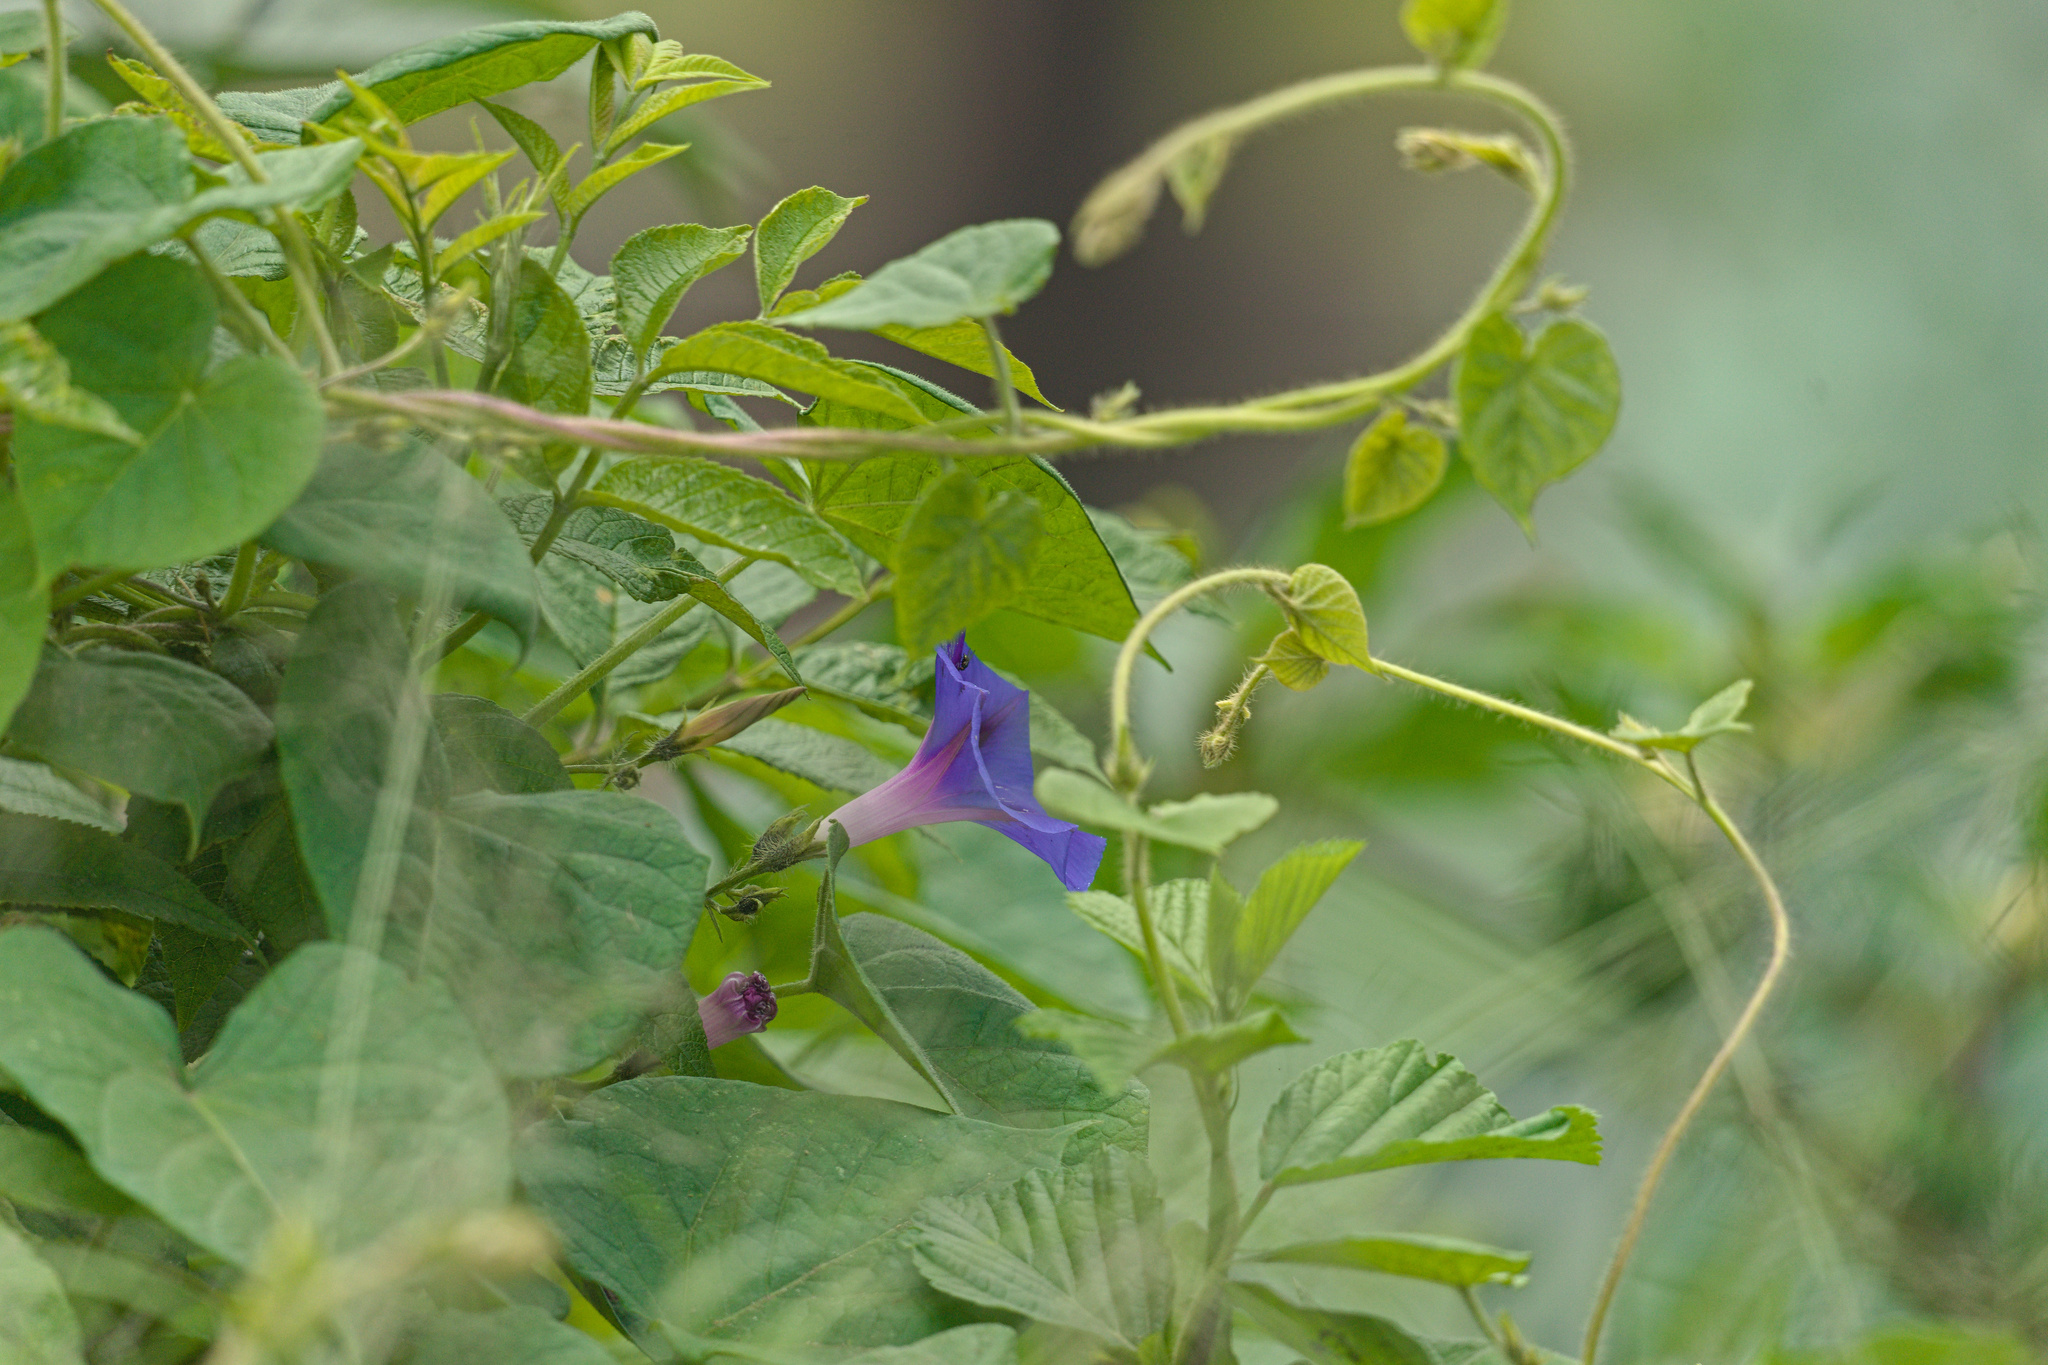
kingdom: Plantae
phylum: Tracheophyta
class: Magnoliopsida
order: Solanales
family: Convolvulaceae
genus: Ipomoea
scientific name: Ipomoea purpurea
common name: Common morning-glory
